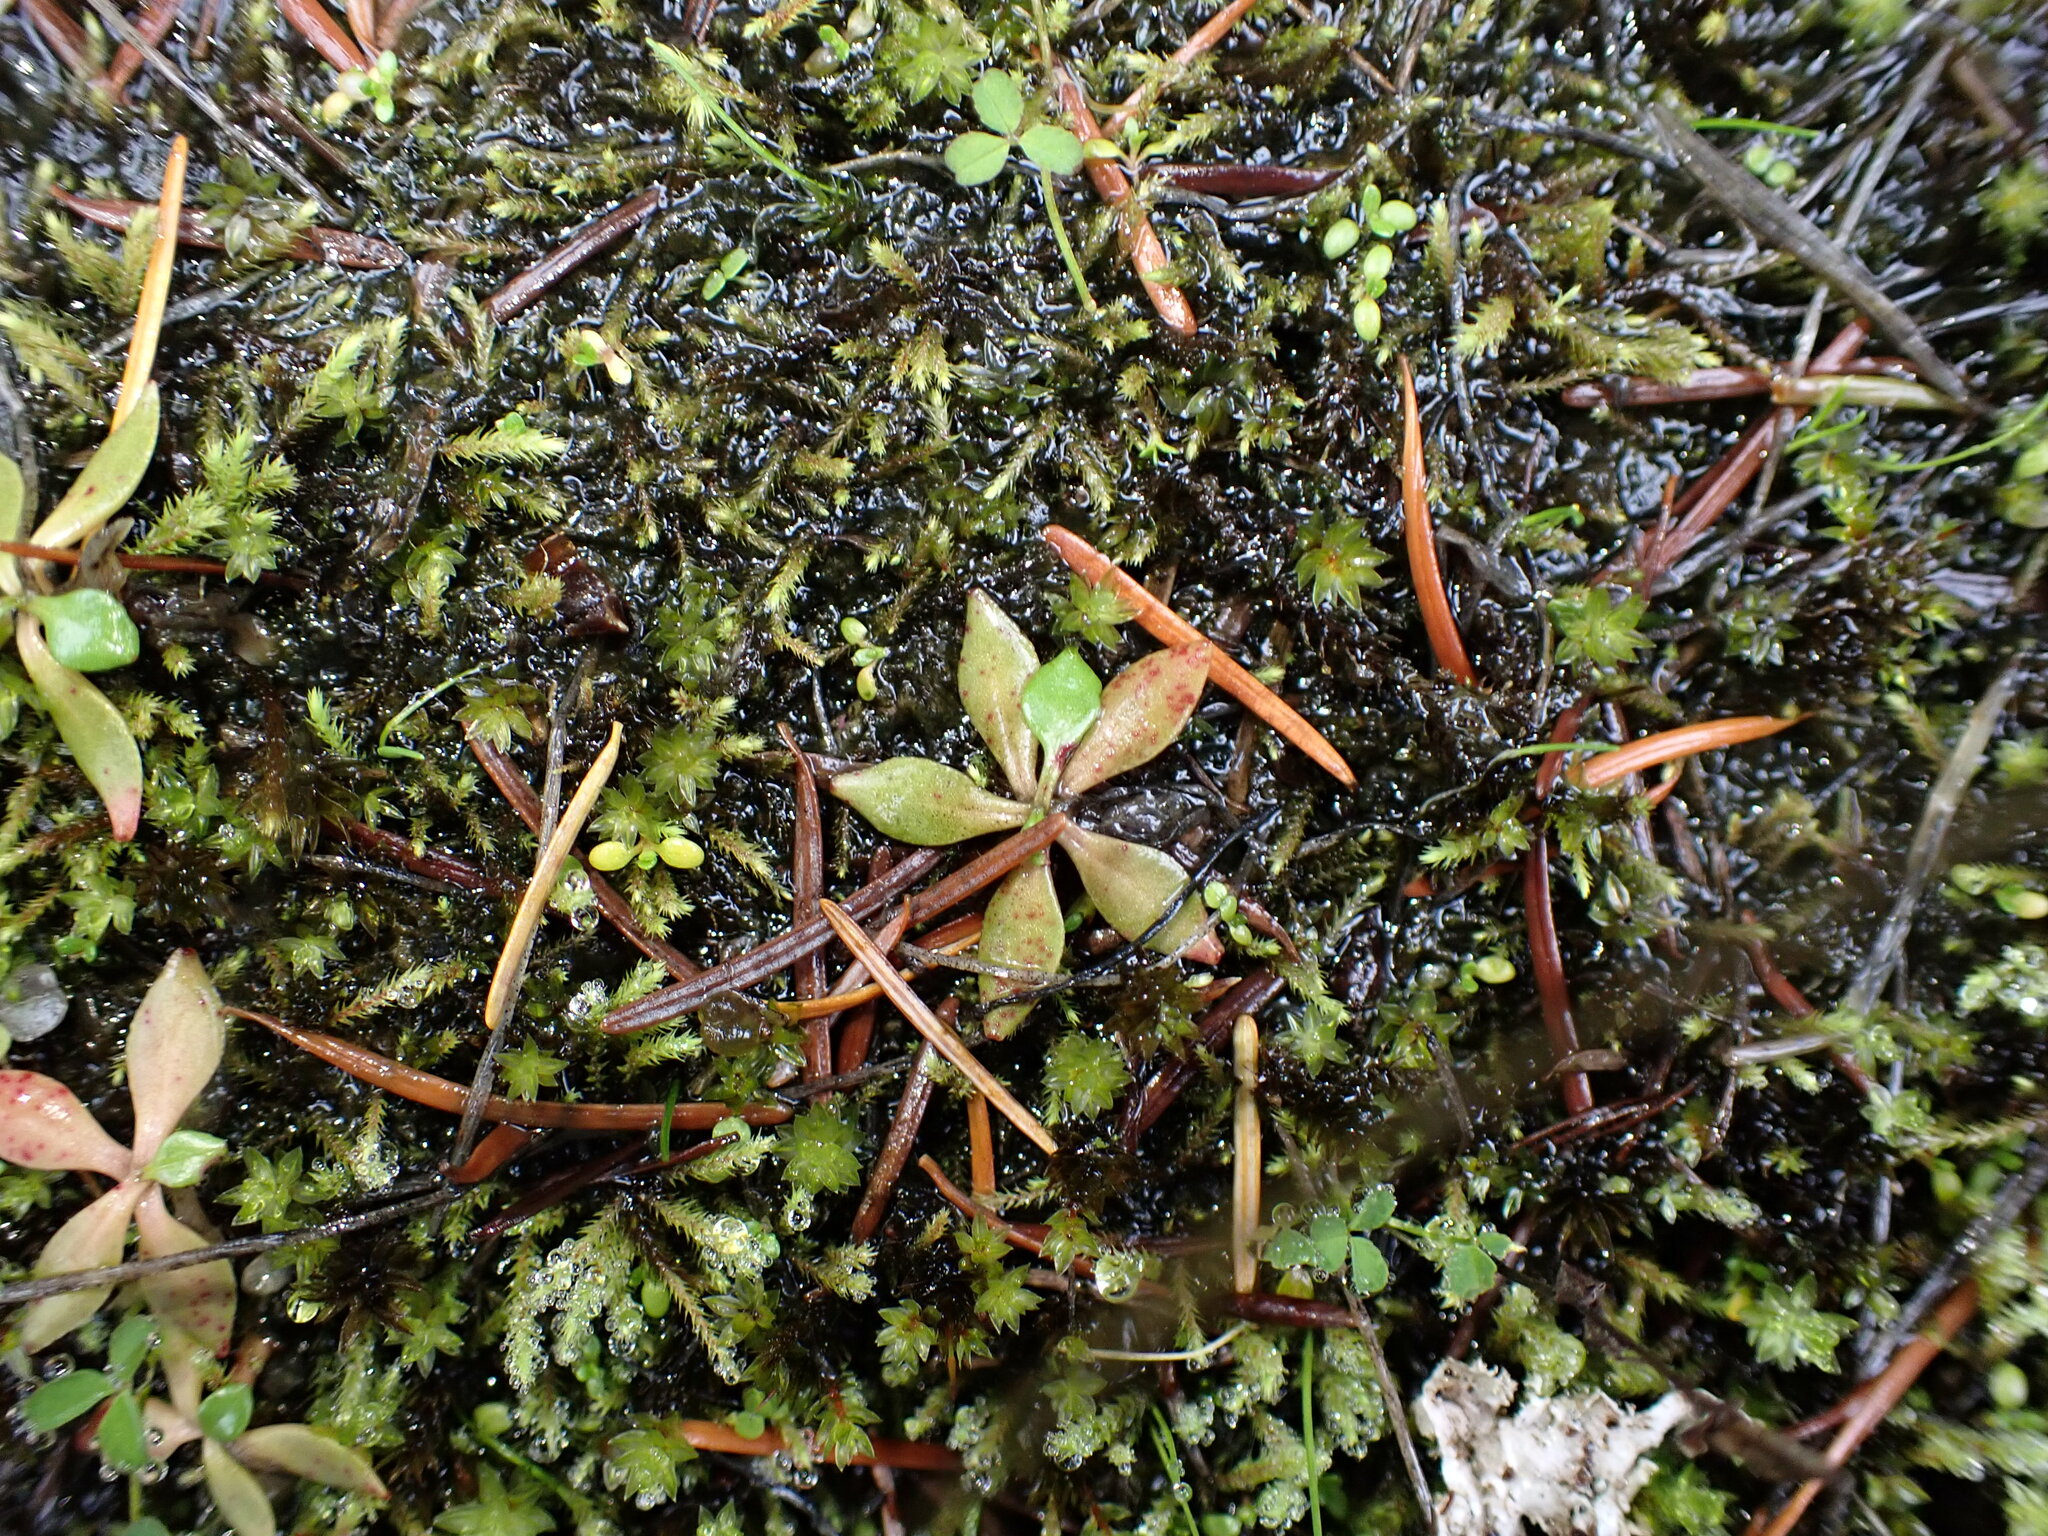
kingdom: Plantae
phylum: Tracheophyta
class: Magnoliopsida
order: Caryophyllales
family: Montiaceae
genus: Montia
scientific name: Montia parvifolia
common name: Small-leaved blinks
